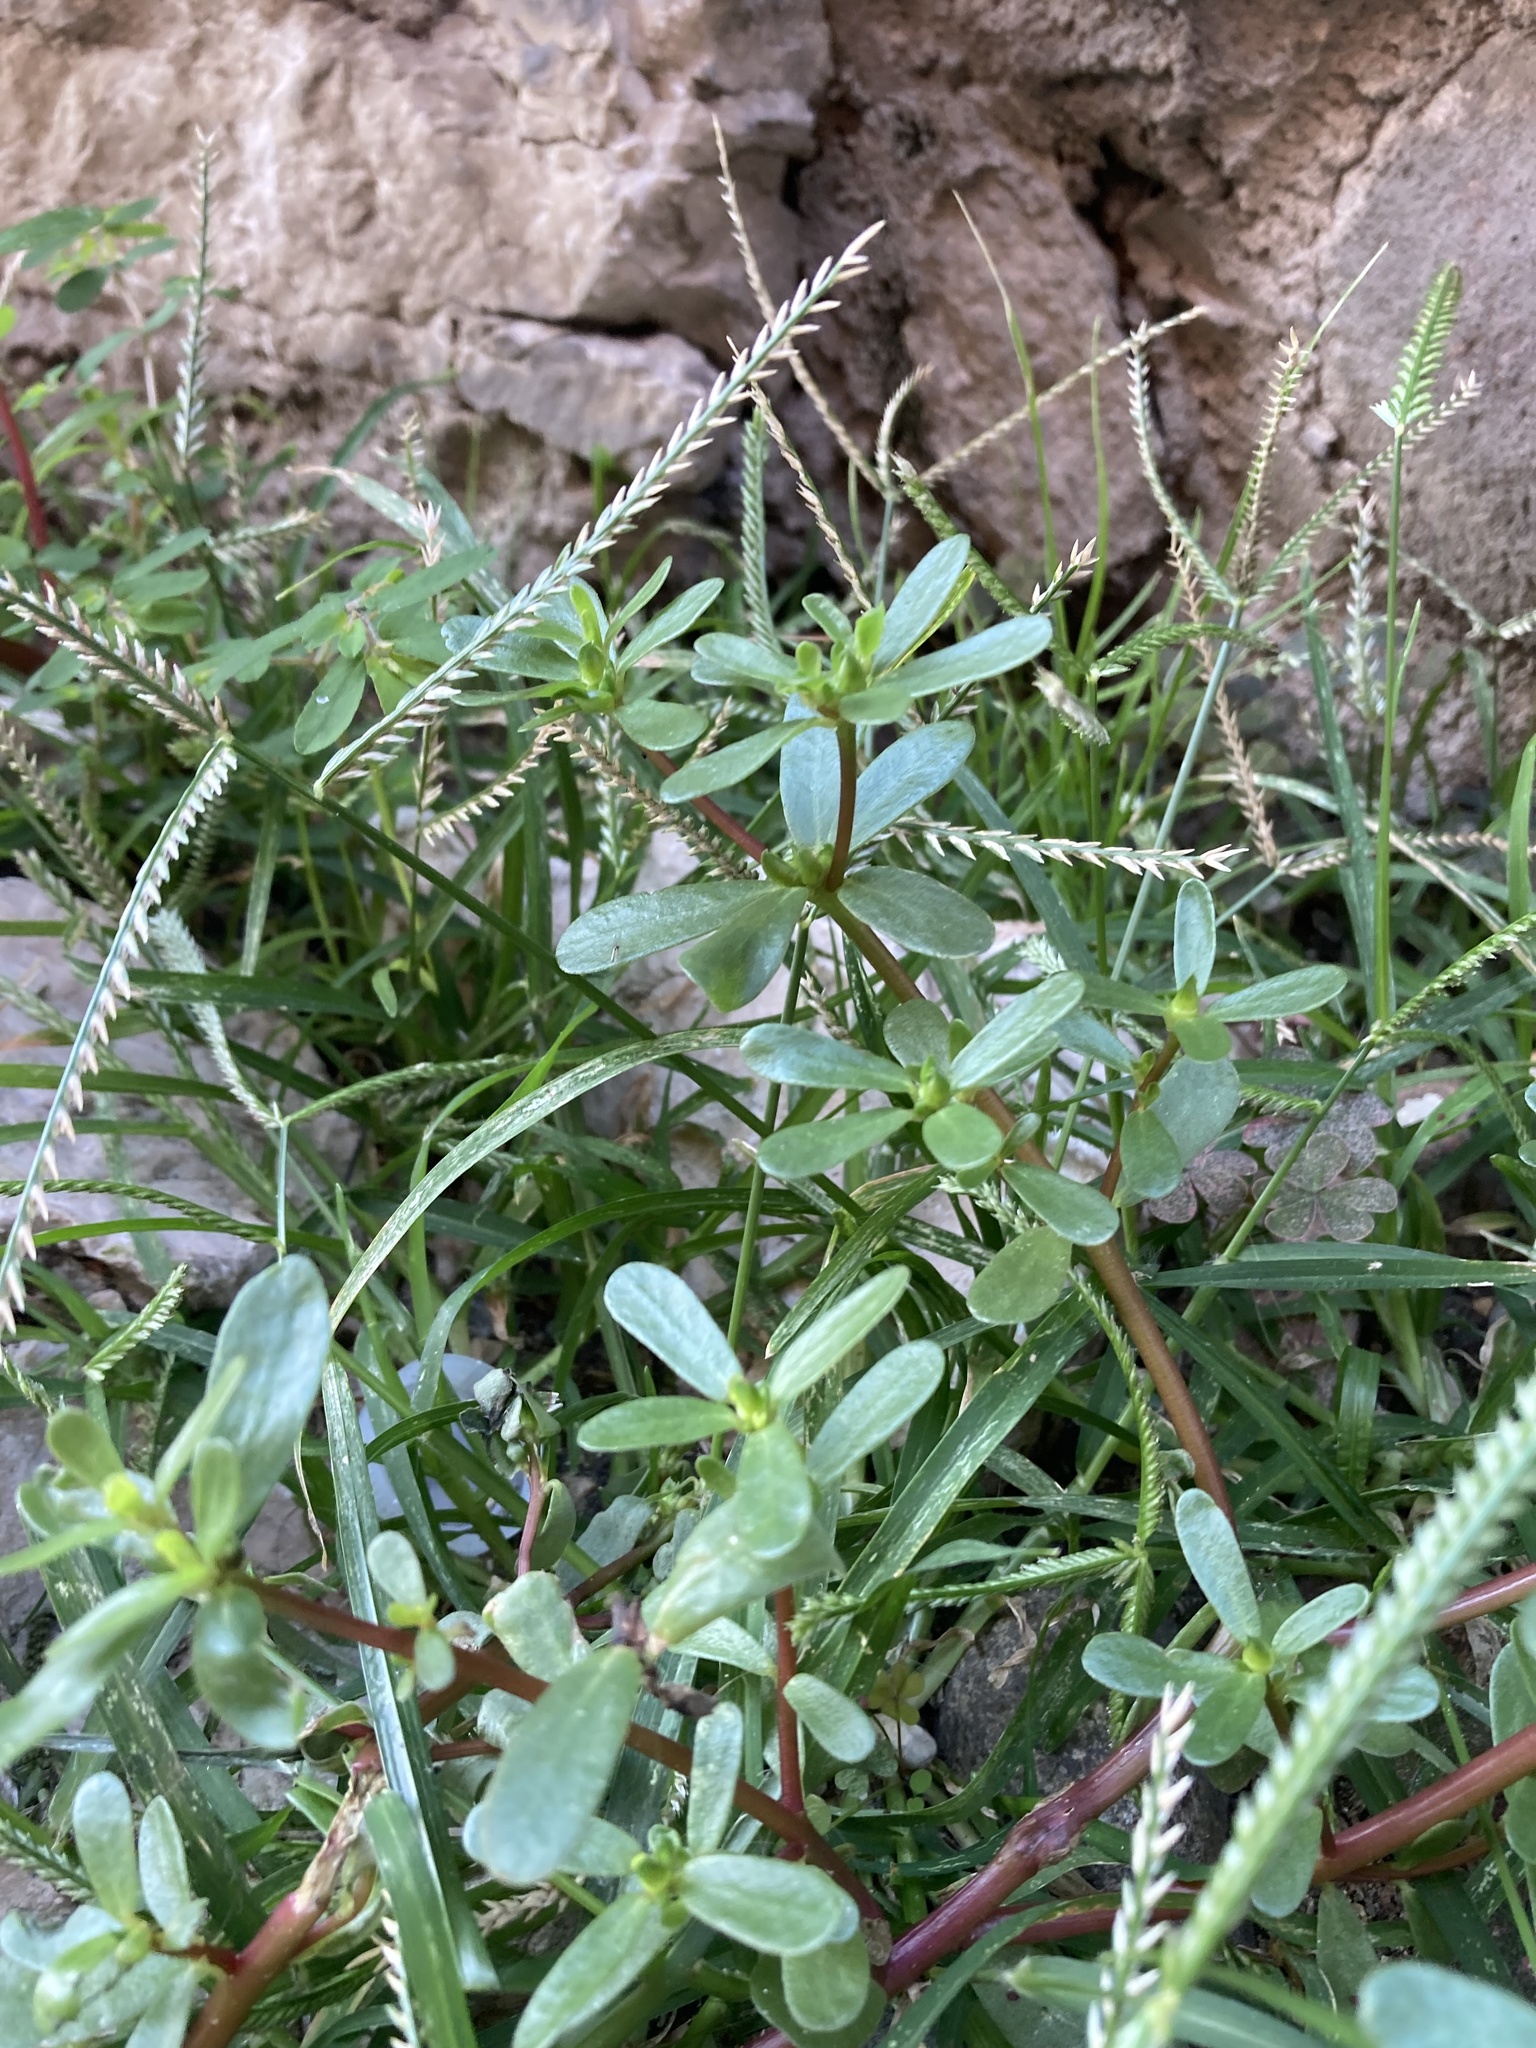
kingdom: Plantae
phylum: Tracheophyta
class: Magnoliopsida
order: Caryophyllales
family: Portulacaceae
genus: Portulaca
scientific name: Portulaca oleracea
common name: Common purslane
